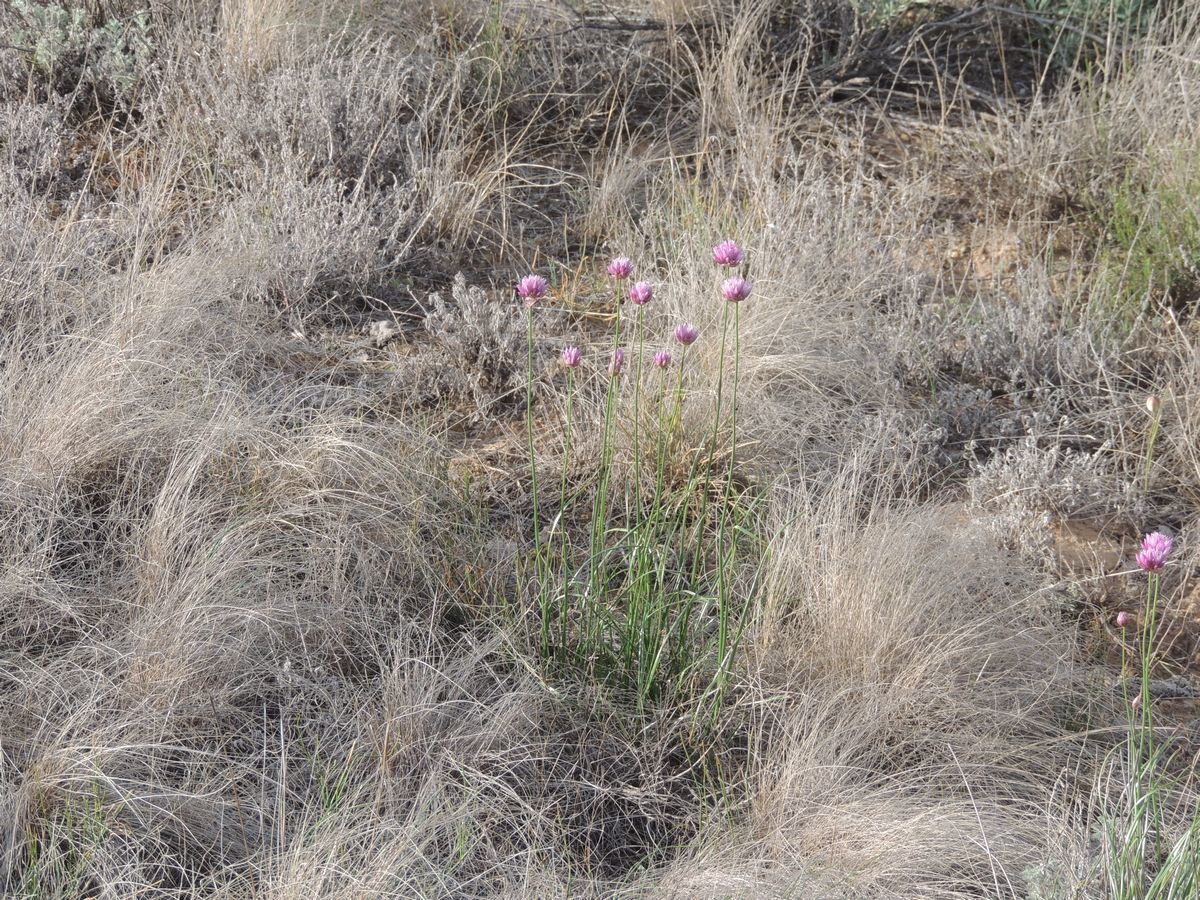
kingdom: Plantae
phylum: Tracheophyta
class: Liliopsida
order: Asparagales
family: Amaryllidaceae
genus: Allium
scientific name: Allium inderiense
